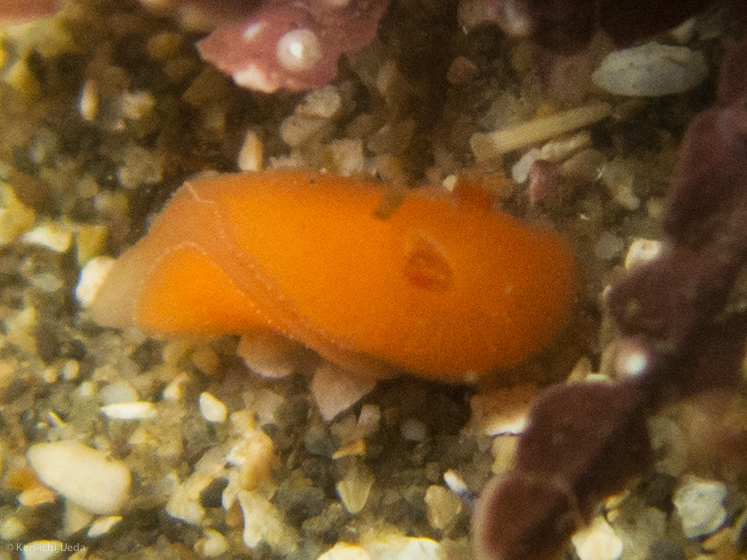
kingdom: Animalia
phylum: Mollusca
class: Gastropoda
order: Nudibranchia
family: Discodorididae
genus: Rostanga
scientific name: Rostanga pulchra
